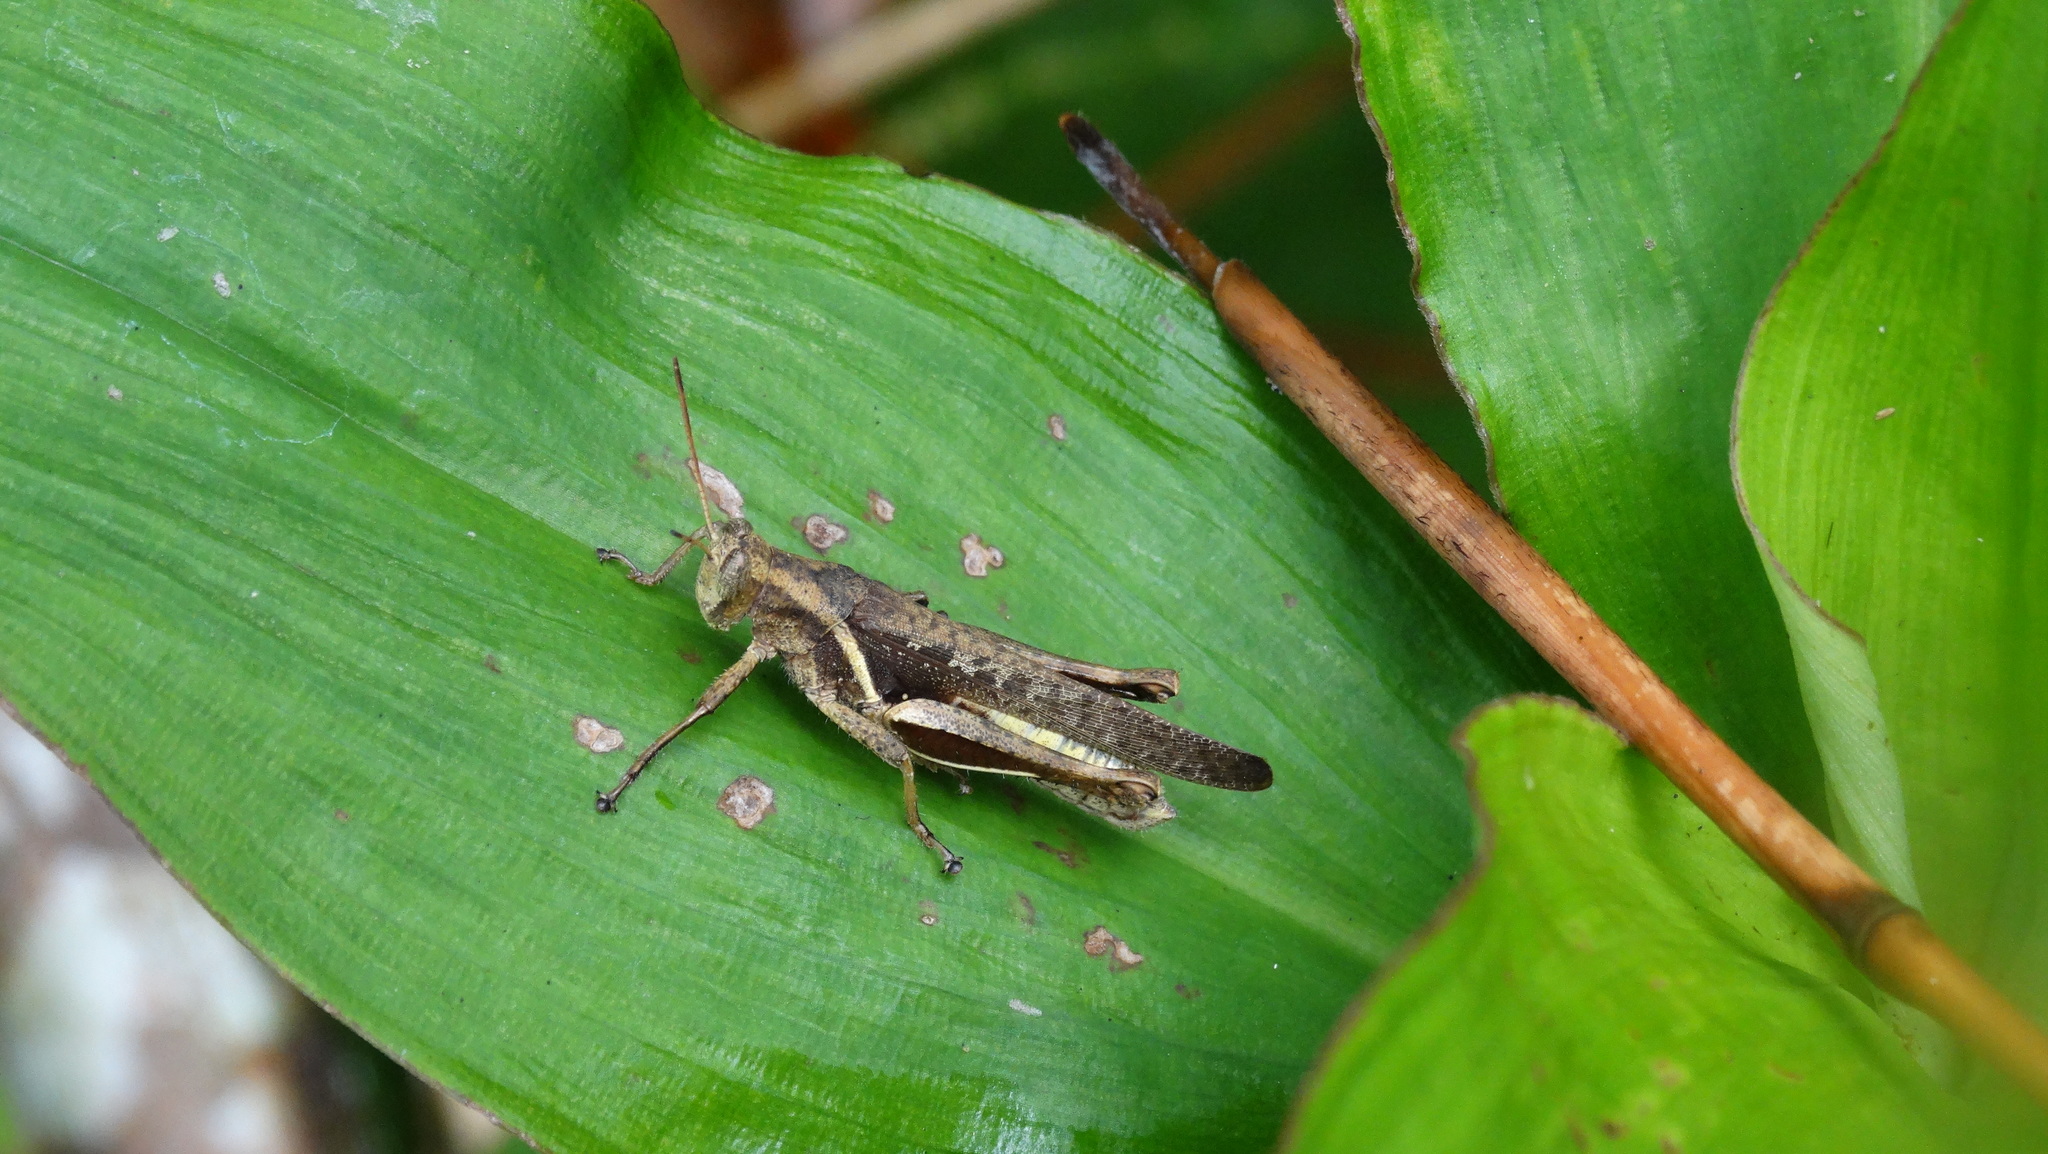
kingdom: Animalia
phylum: Arthropoda
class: Insecta
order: Orthoptera
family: Acrididae
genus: Abracris
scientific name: Abracris flavolineata
